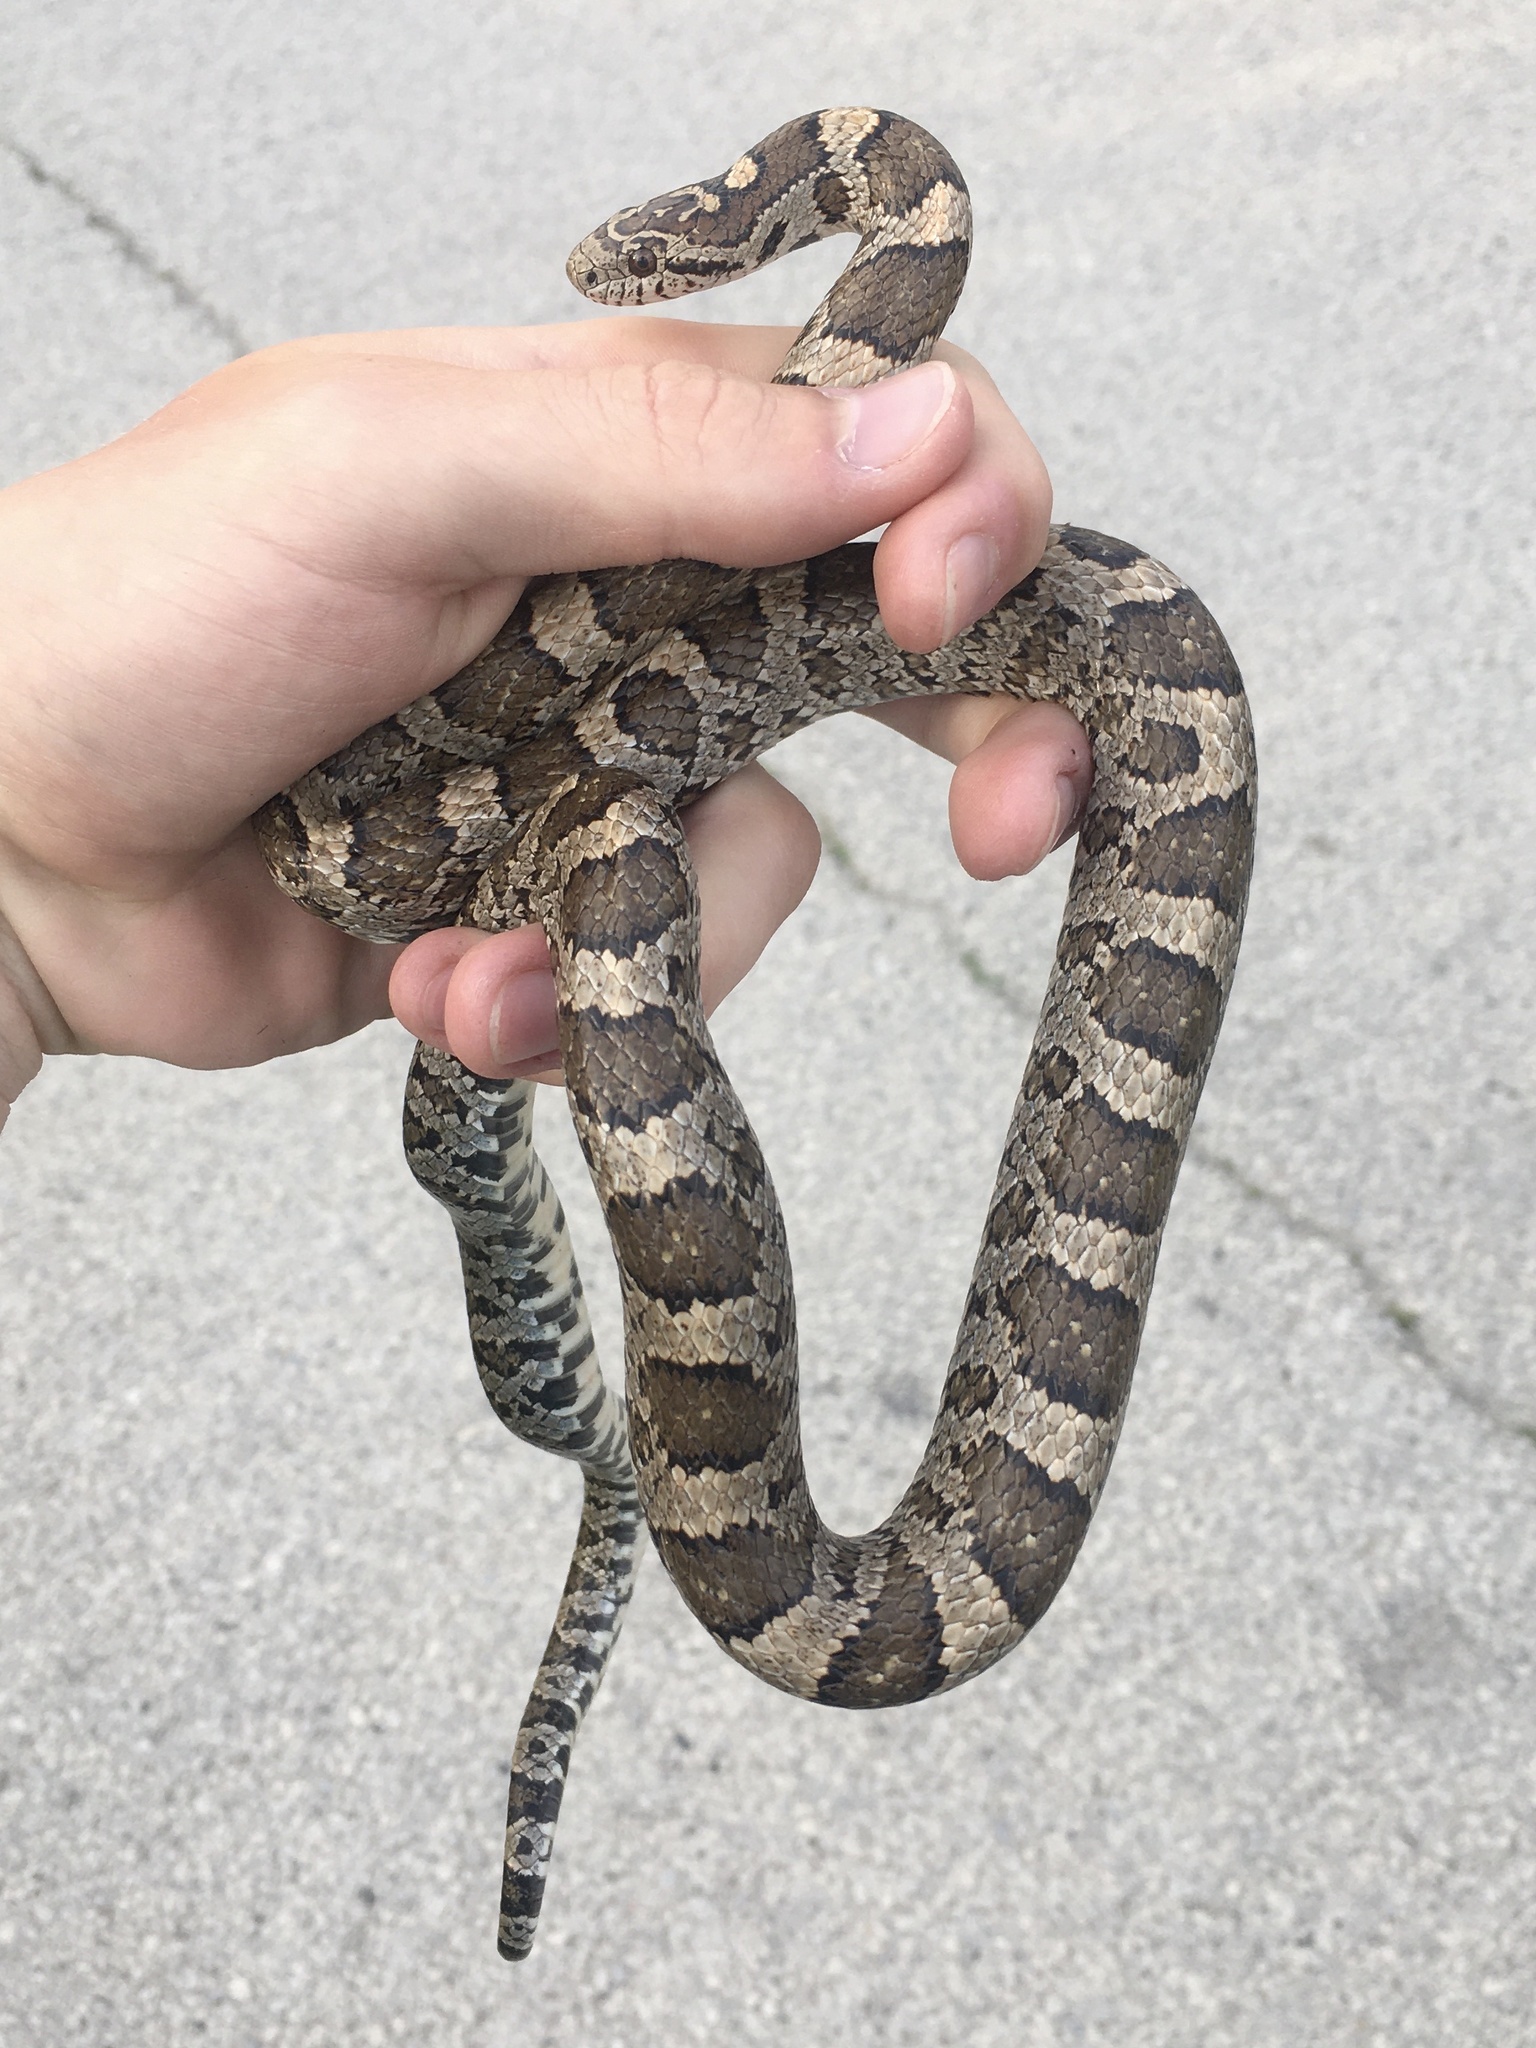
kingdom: Animalia
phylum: Chordata
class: Squamata
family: Colubridae
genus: Lampropeltis
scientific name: Lampropeltis triangulum
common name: Eastern milksnake
